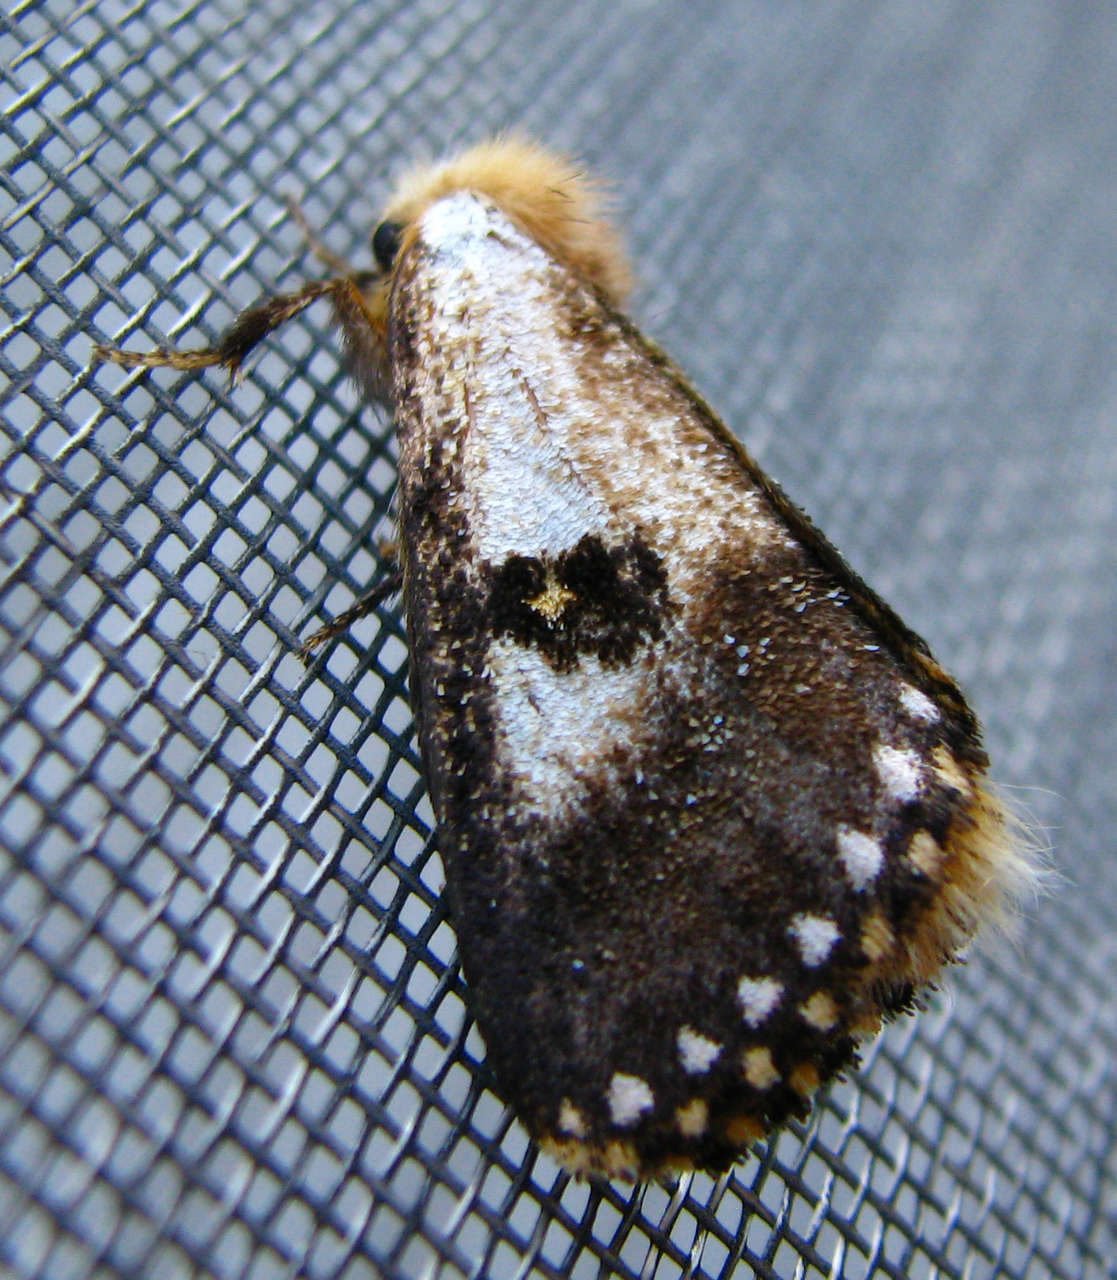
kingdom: Animalia
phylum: Arthropoda
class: Insecta
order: Lepidoptera
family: Notodontidae
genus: Epicoma
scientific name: Epicoma contristis
